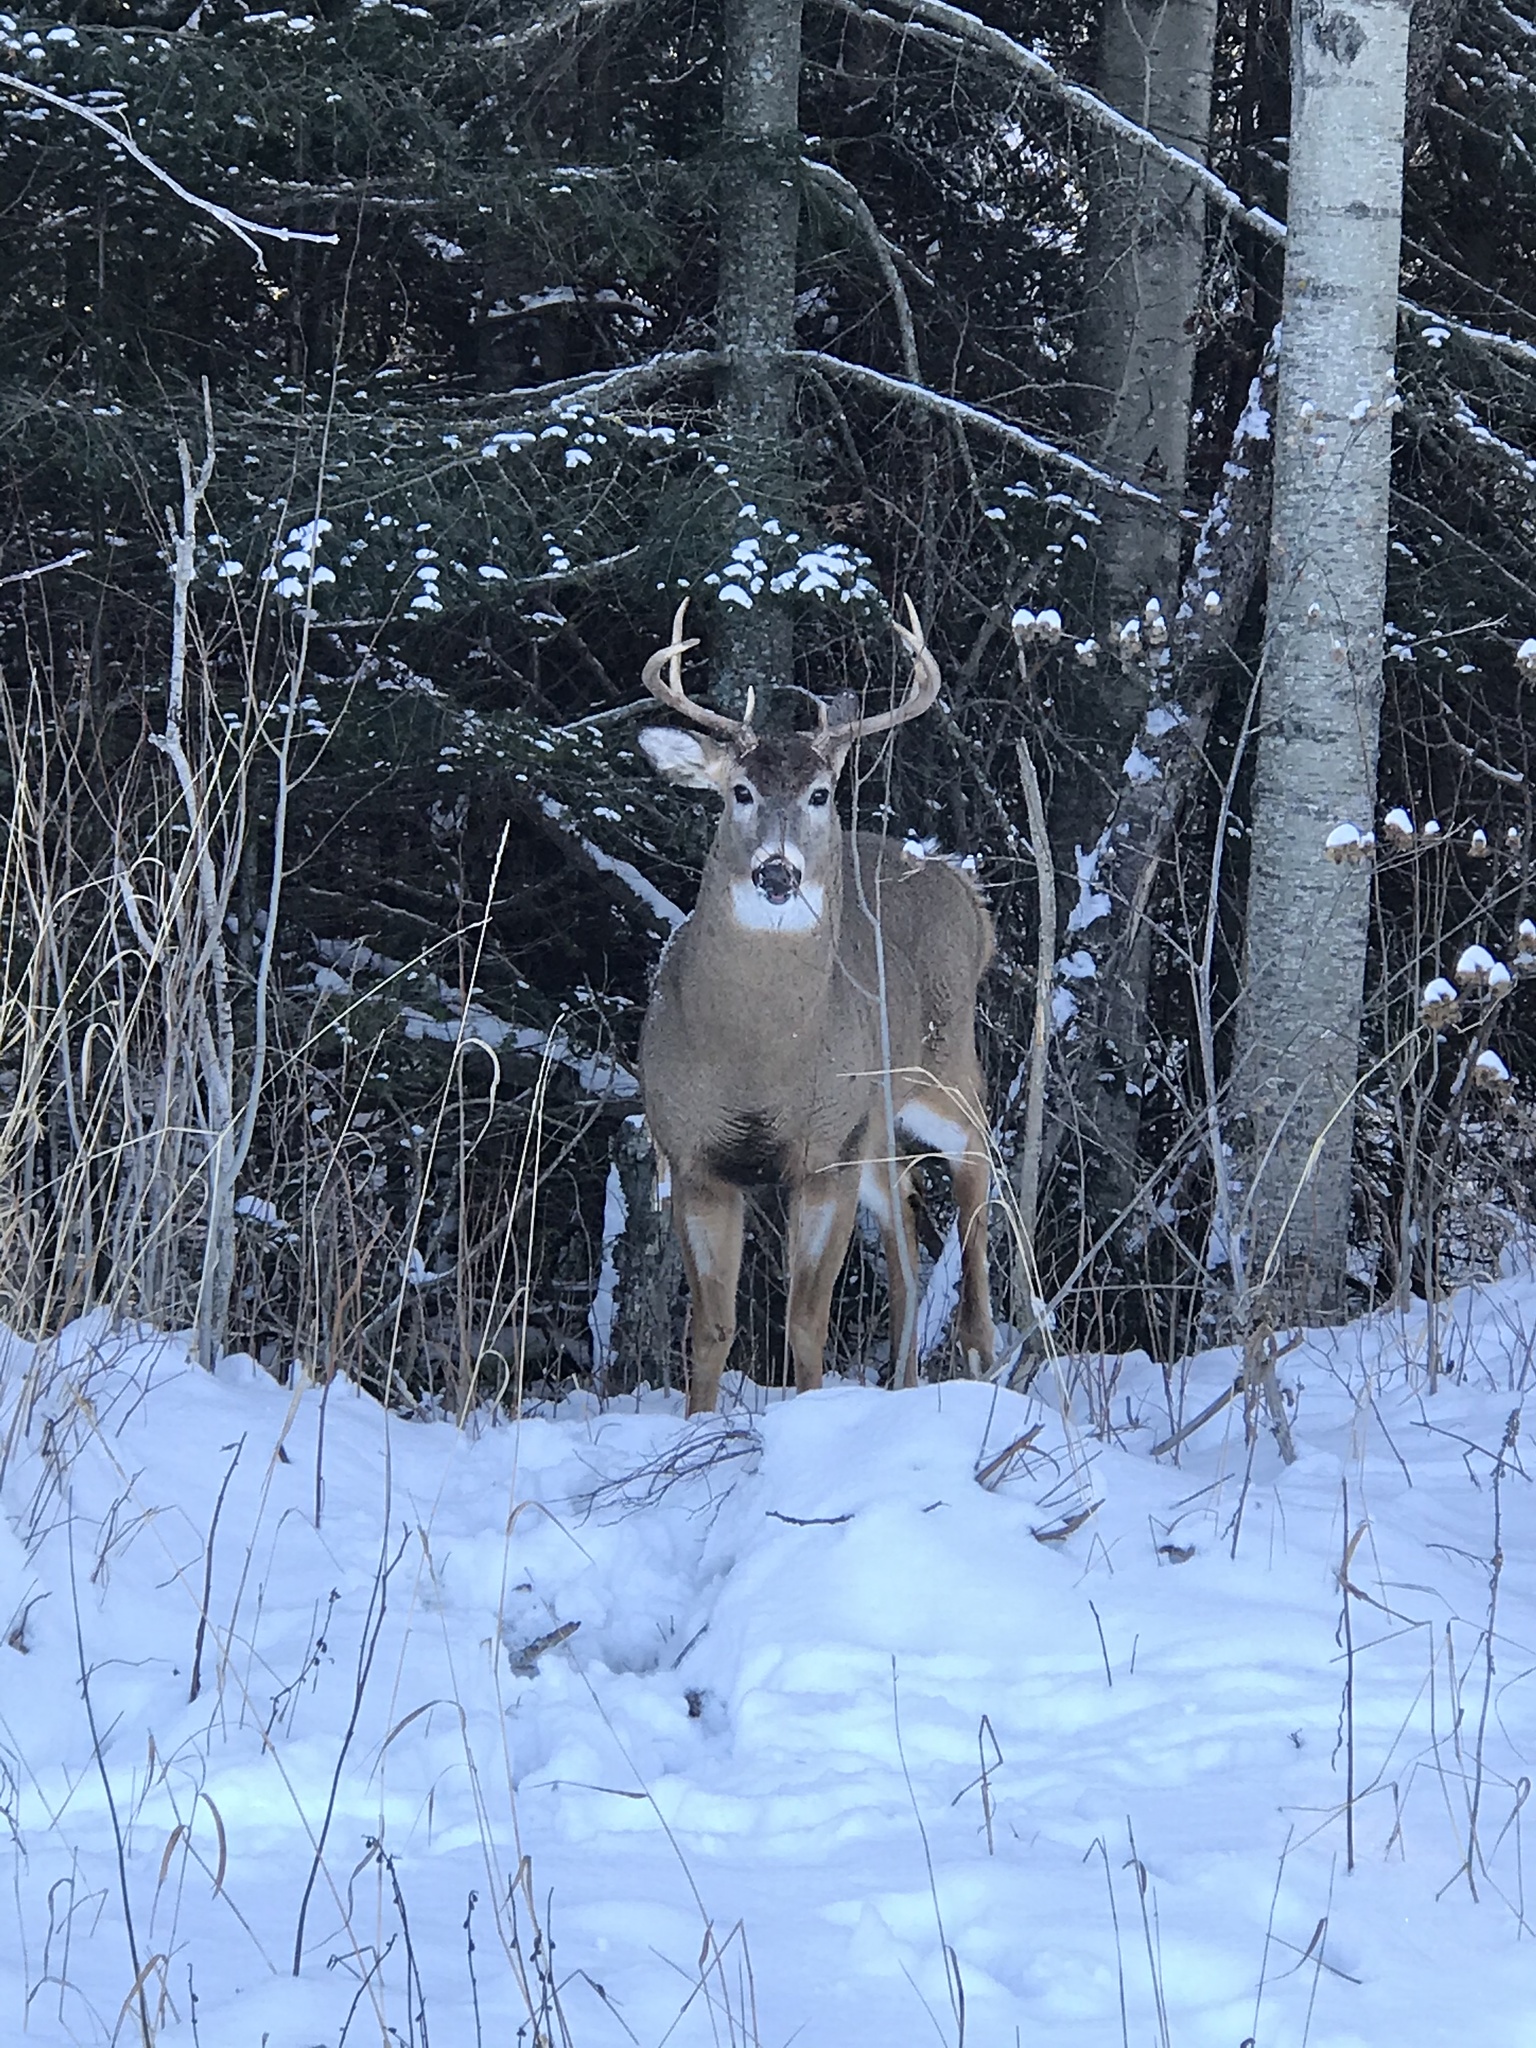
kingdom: Animalia
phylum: Chordata
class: Mammalia
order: Artiodactyla
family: Cervidae
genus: Odocoileus
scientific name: Odocoileus virginianus
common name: White-tailed deer
